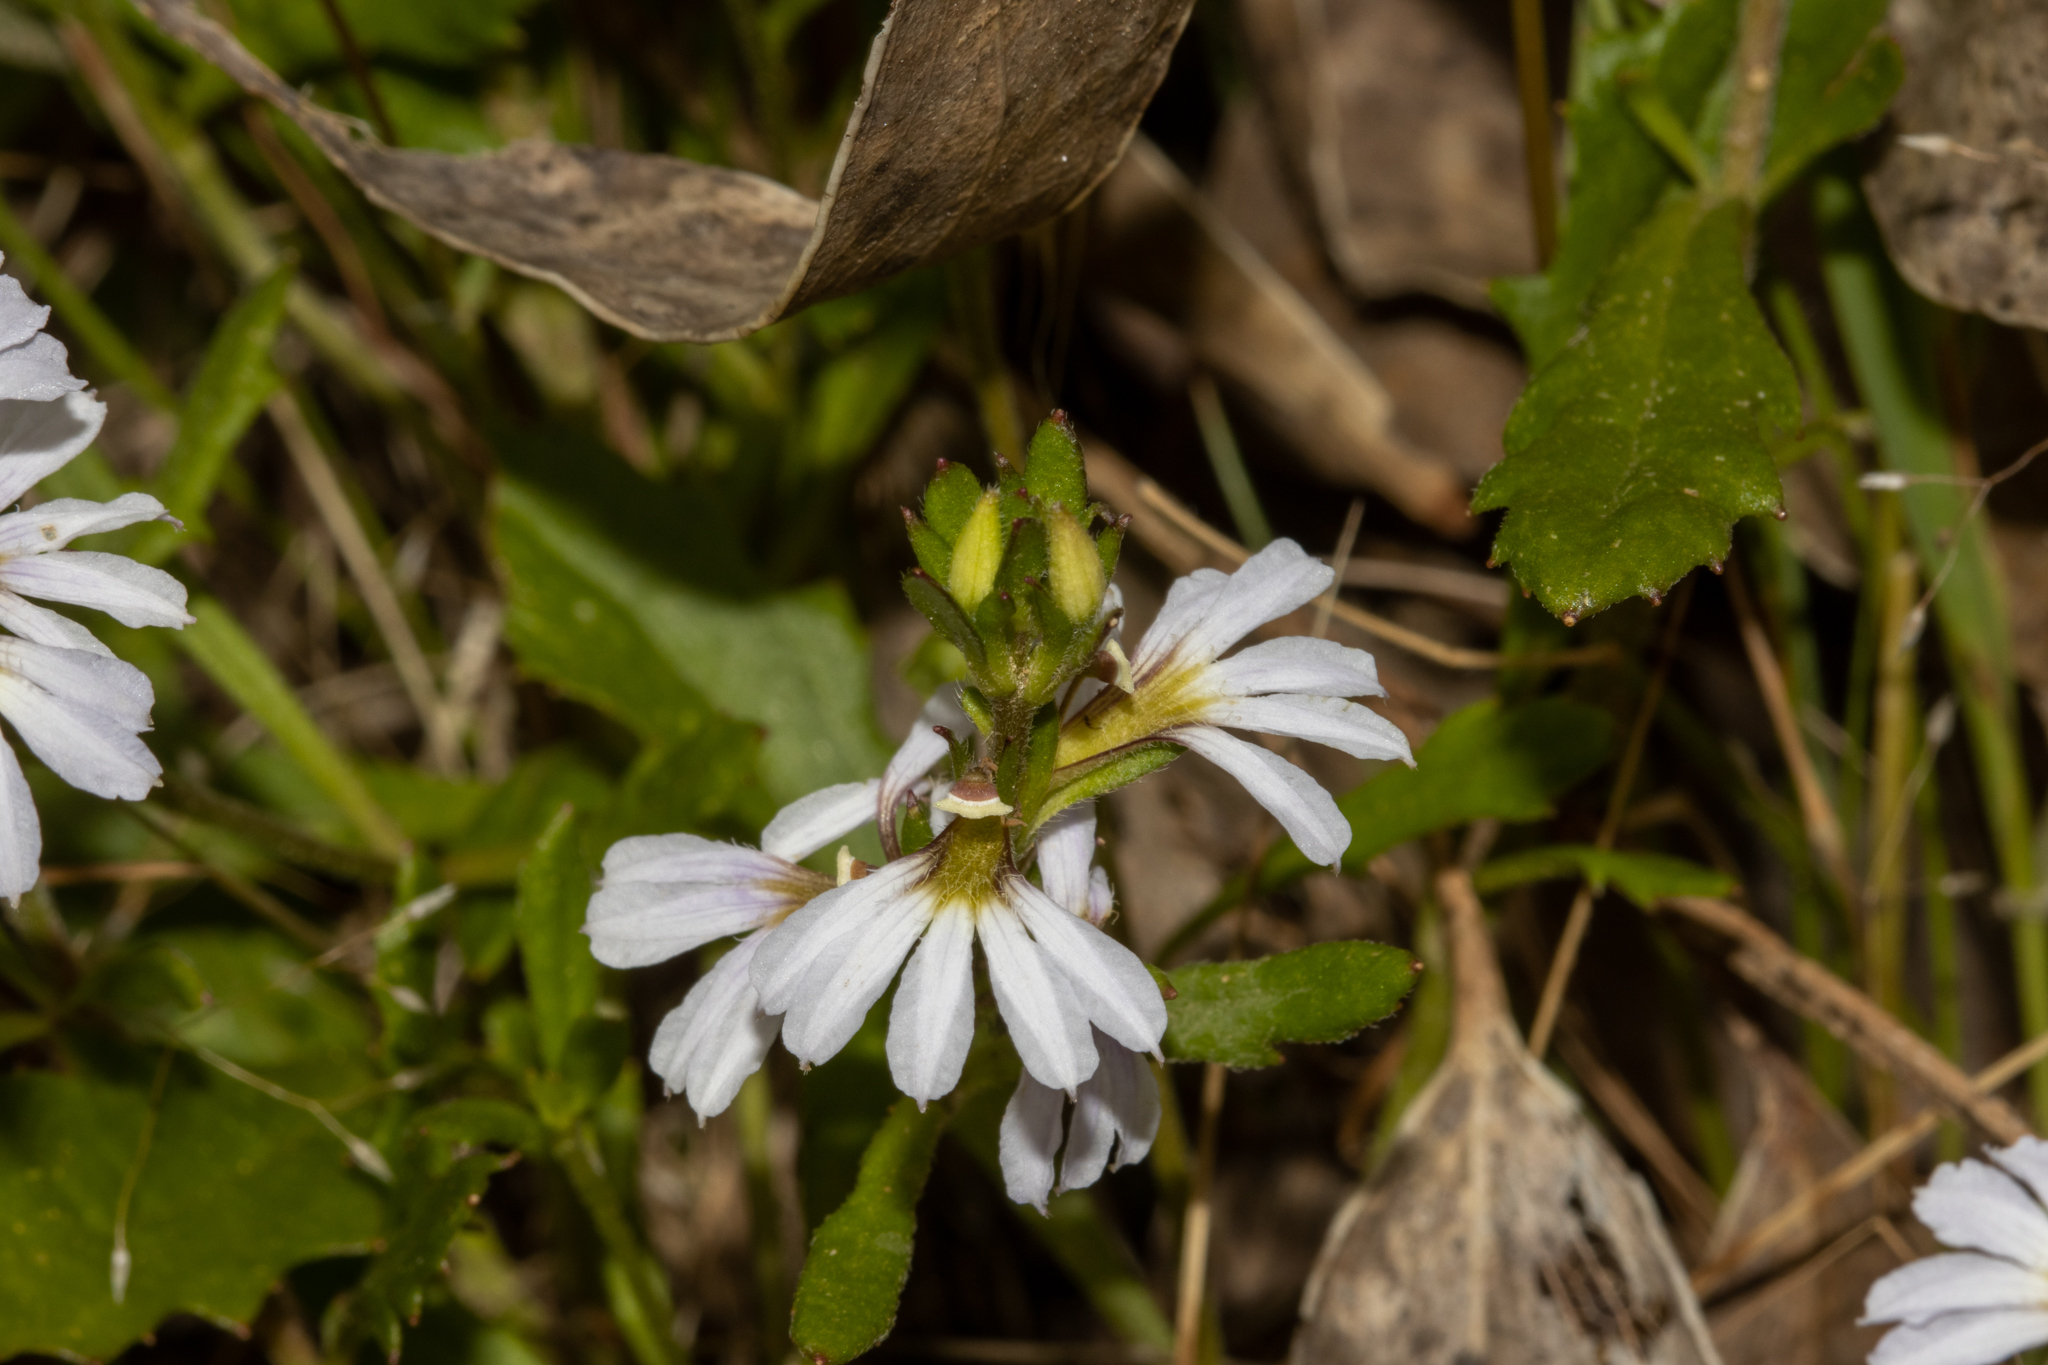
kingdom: Plantae
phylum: Tracheophyta
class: Magnoliopsida
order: Asterales
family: Goodeniaceae
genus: Scaevola
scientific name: Scaevola albida
